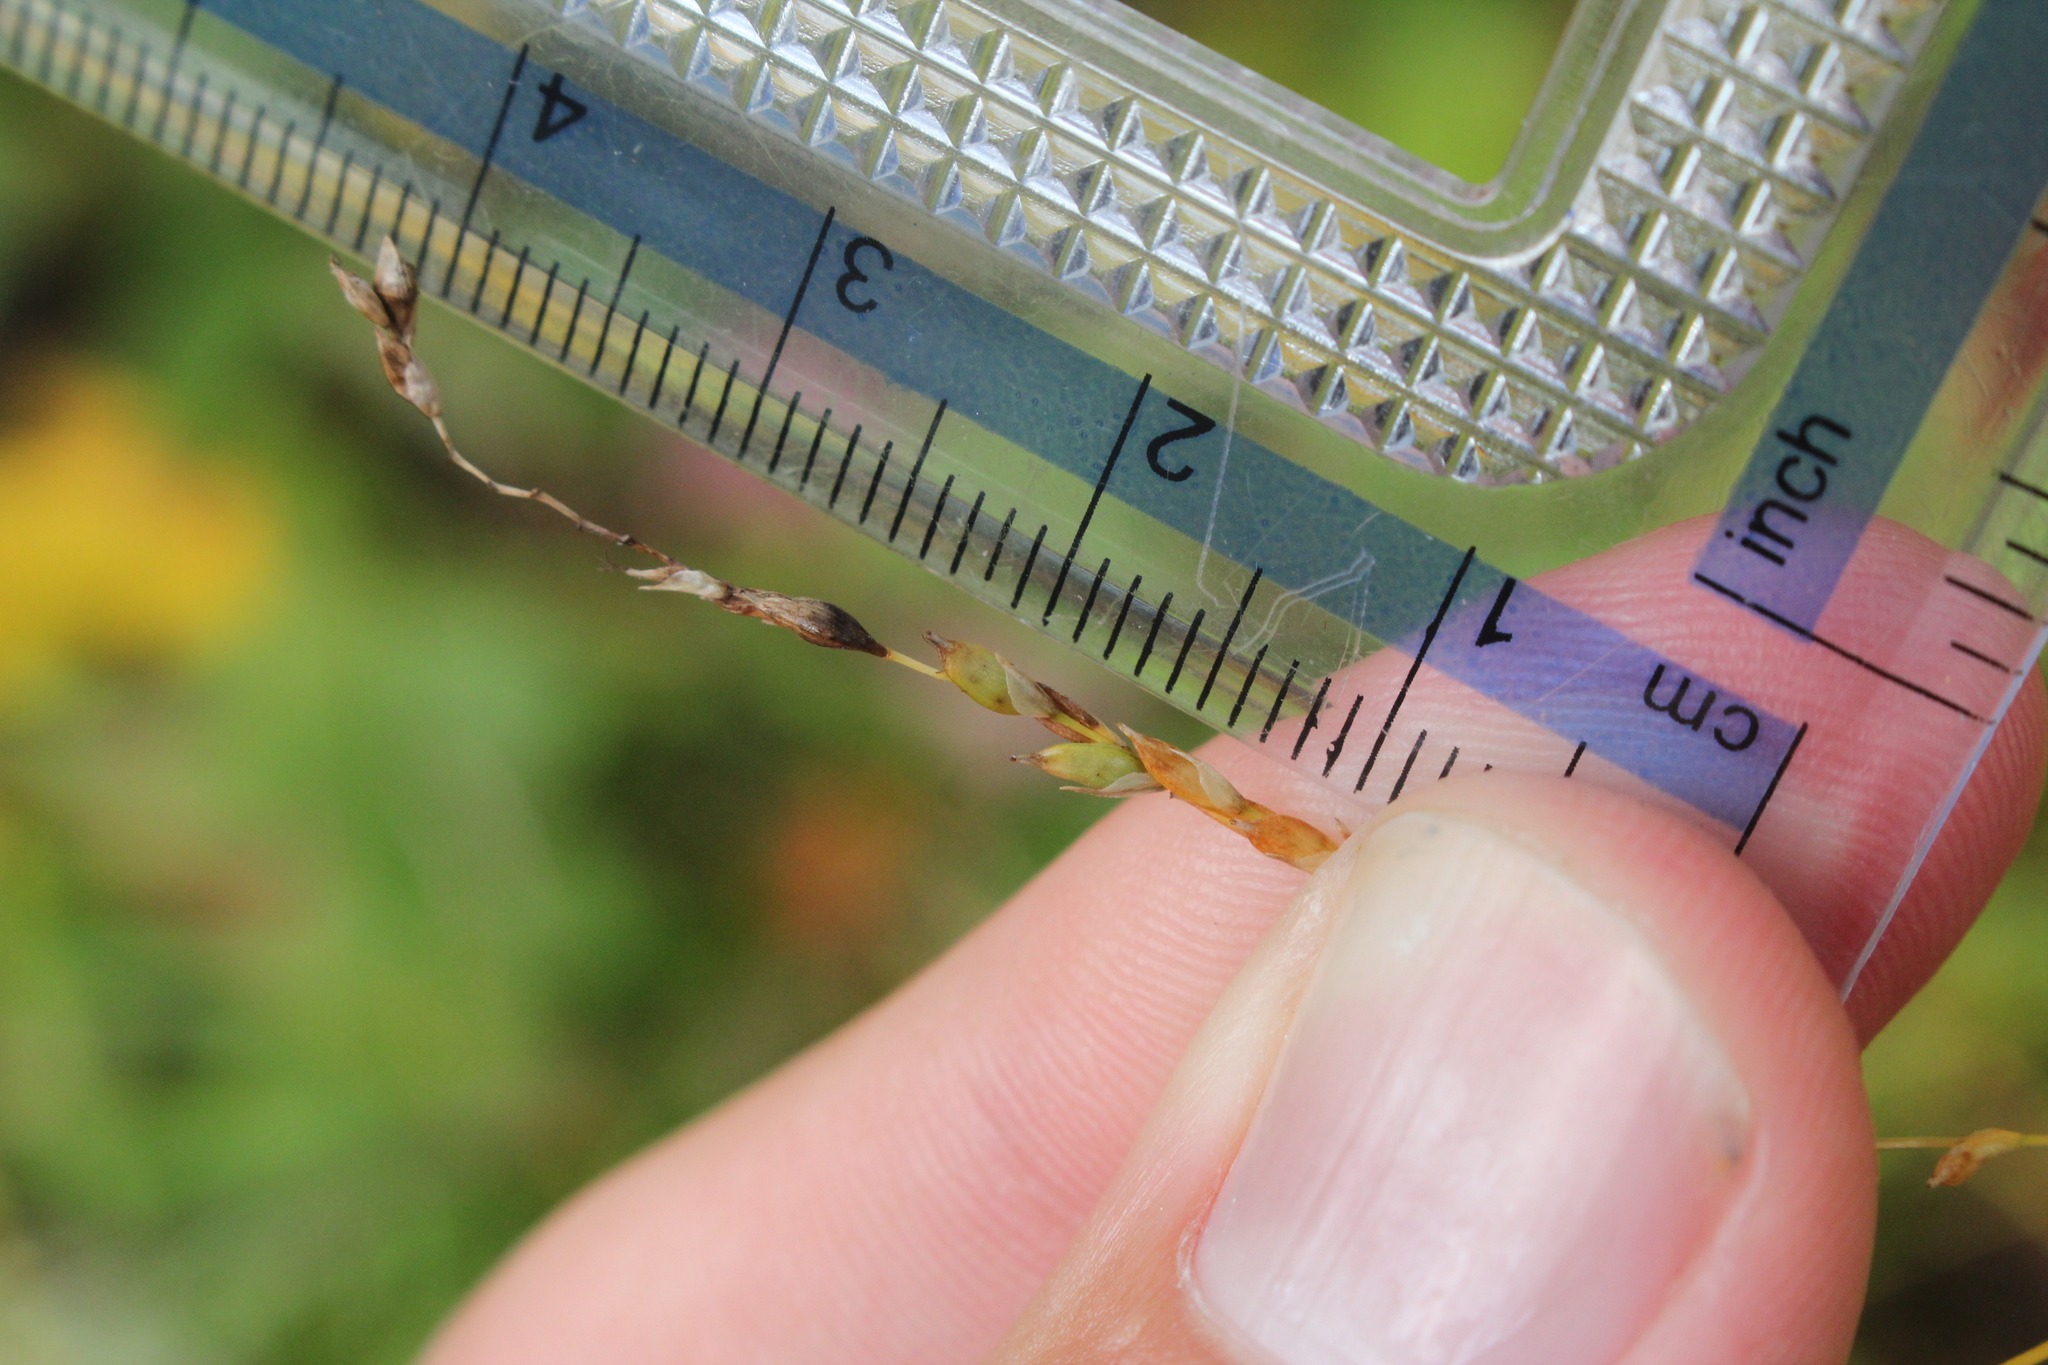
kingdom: Plantae
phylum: Tracheophyta
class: Liliopsida
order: Poales
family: Cyperaceae
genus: Carex
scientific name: Carex arctata
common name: Black sedge
